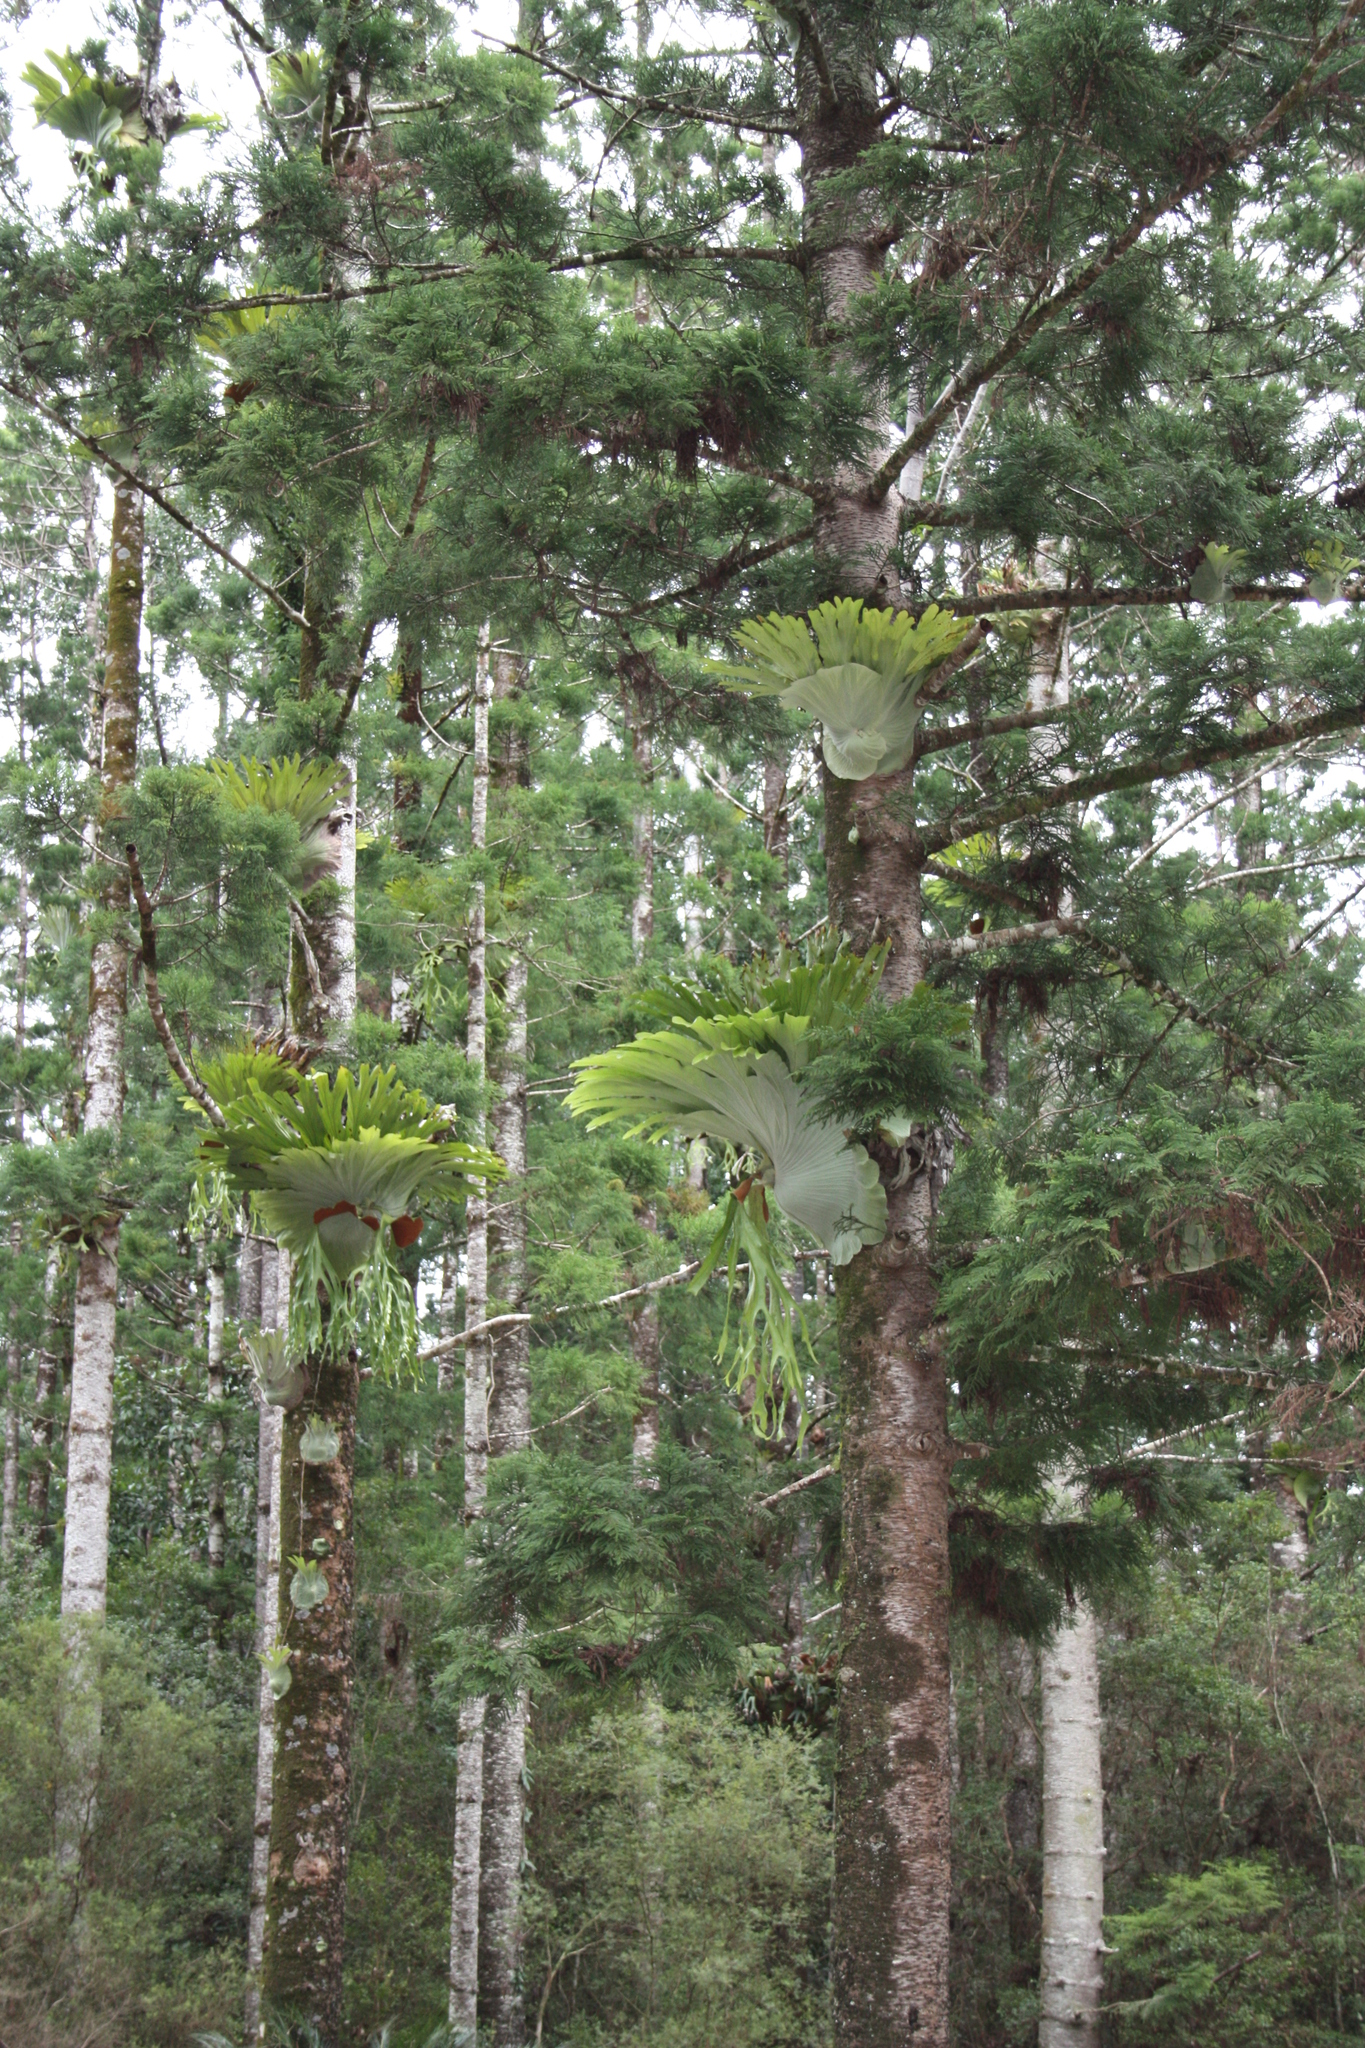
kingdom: Plantae
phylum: Tracheophyta
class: Polypodiopsida
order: Polypodiales
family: Polypodiaceae
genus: Platycerium
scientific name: Platycerium superbum
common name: Staghorn fern
